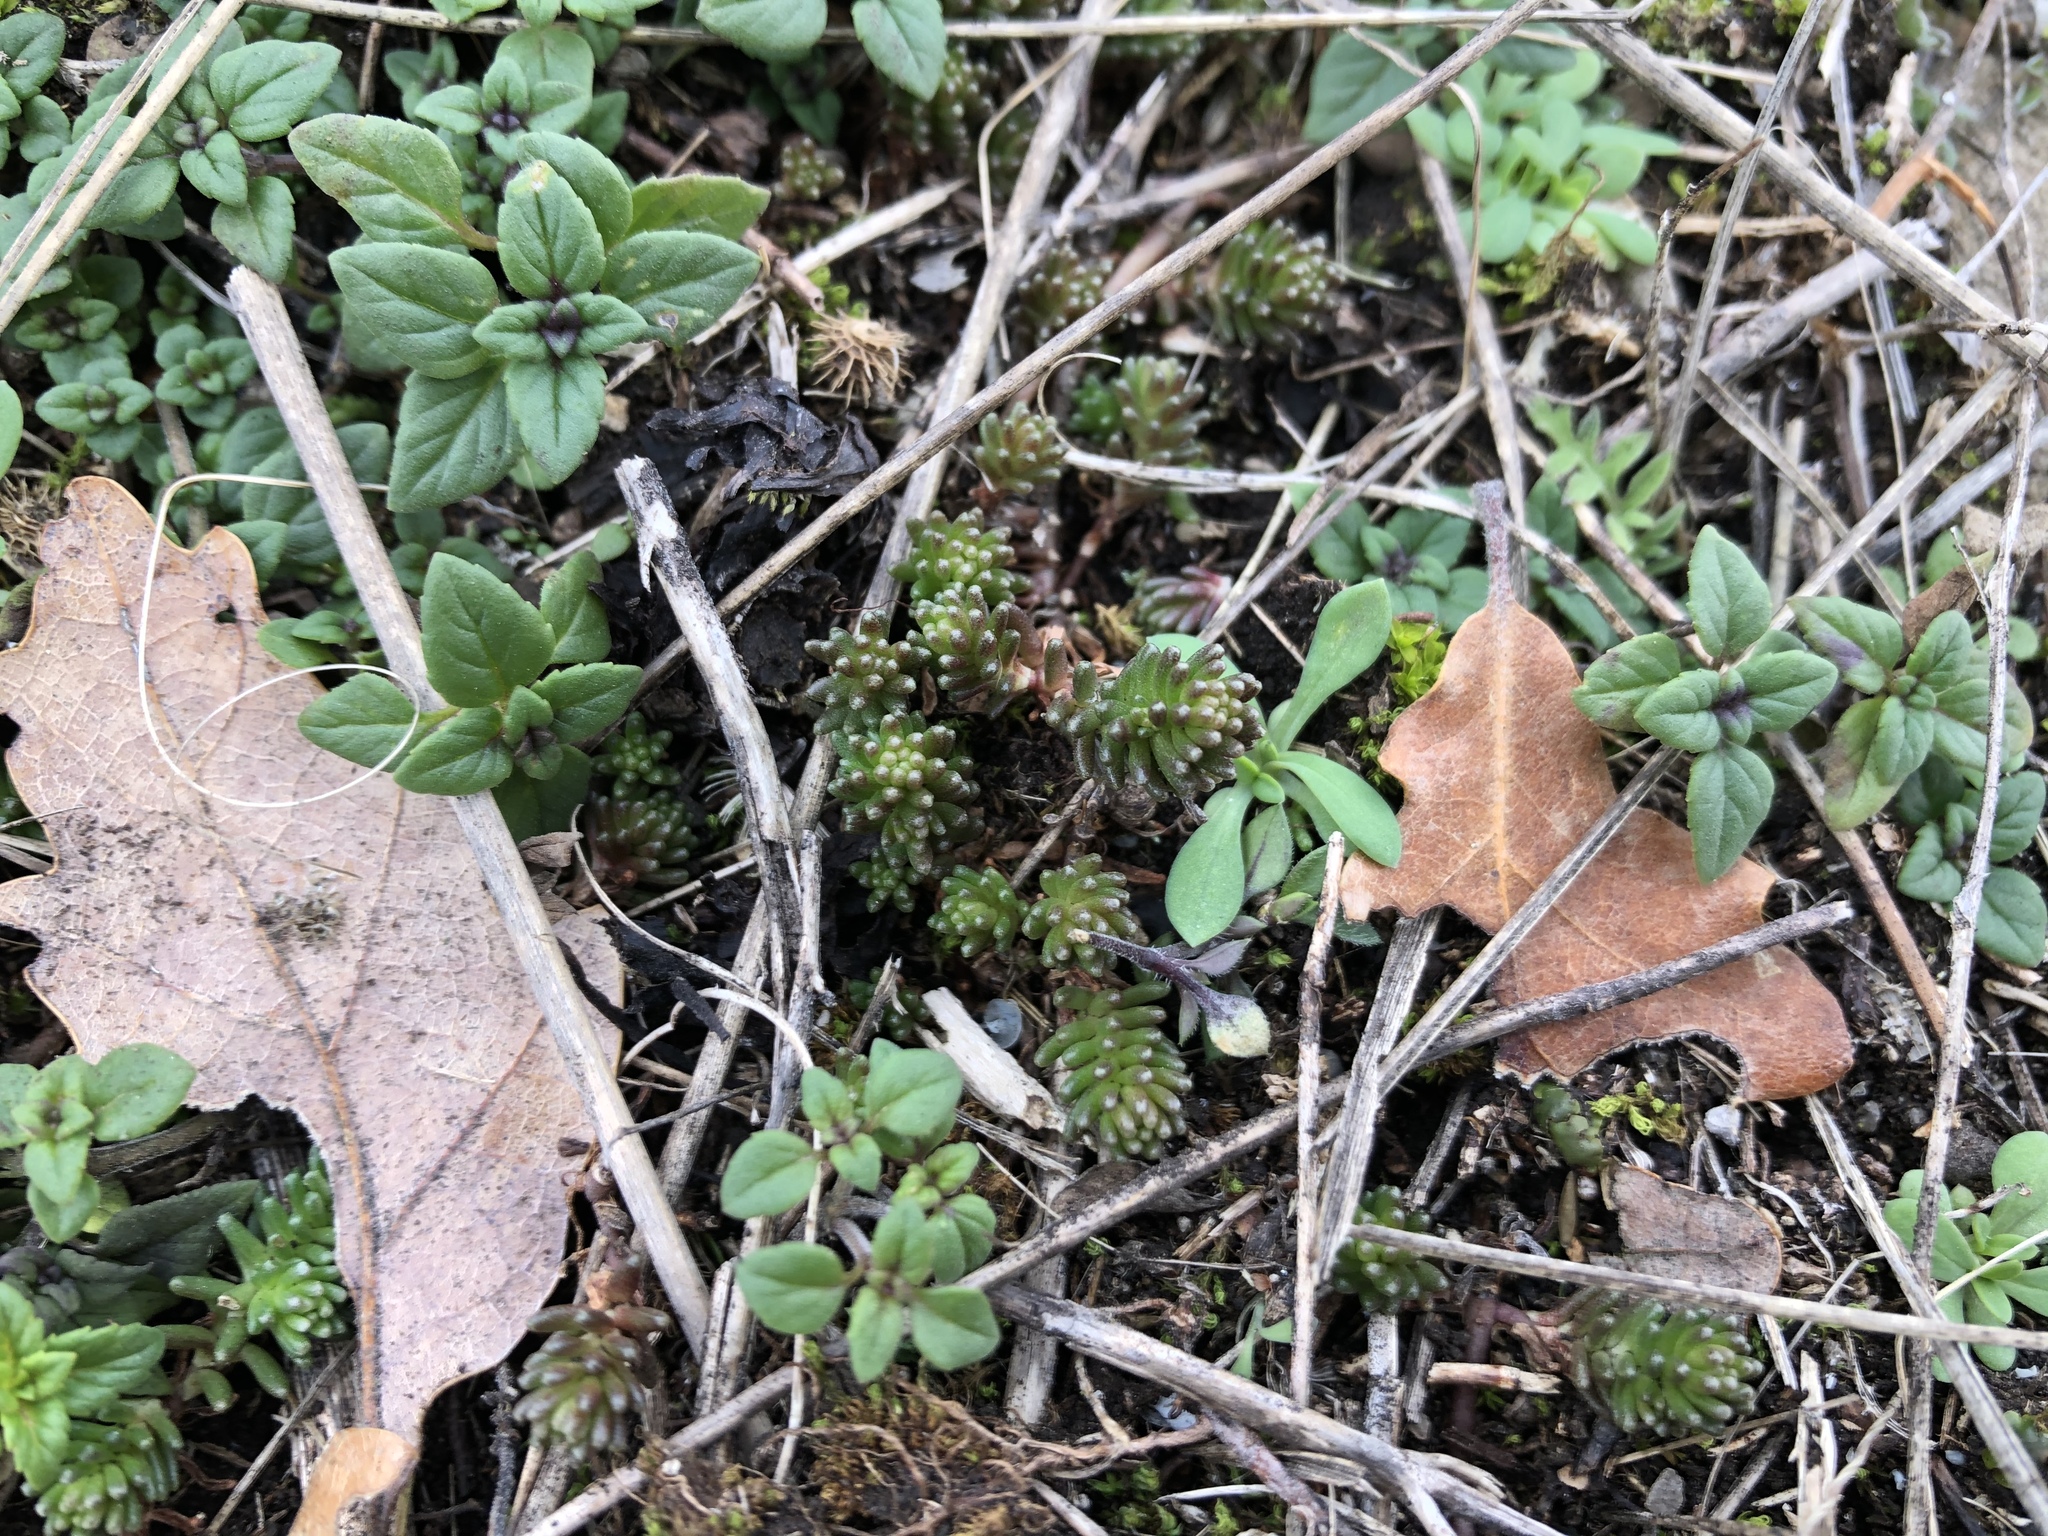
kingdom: Plantae
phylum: Tracheophyta
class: Magnoliopsida
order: Saxifragales
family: Crassulaceae
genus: Sedum
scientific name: Sedum sexangulare
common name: Tasteless stonecrop
